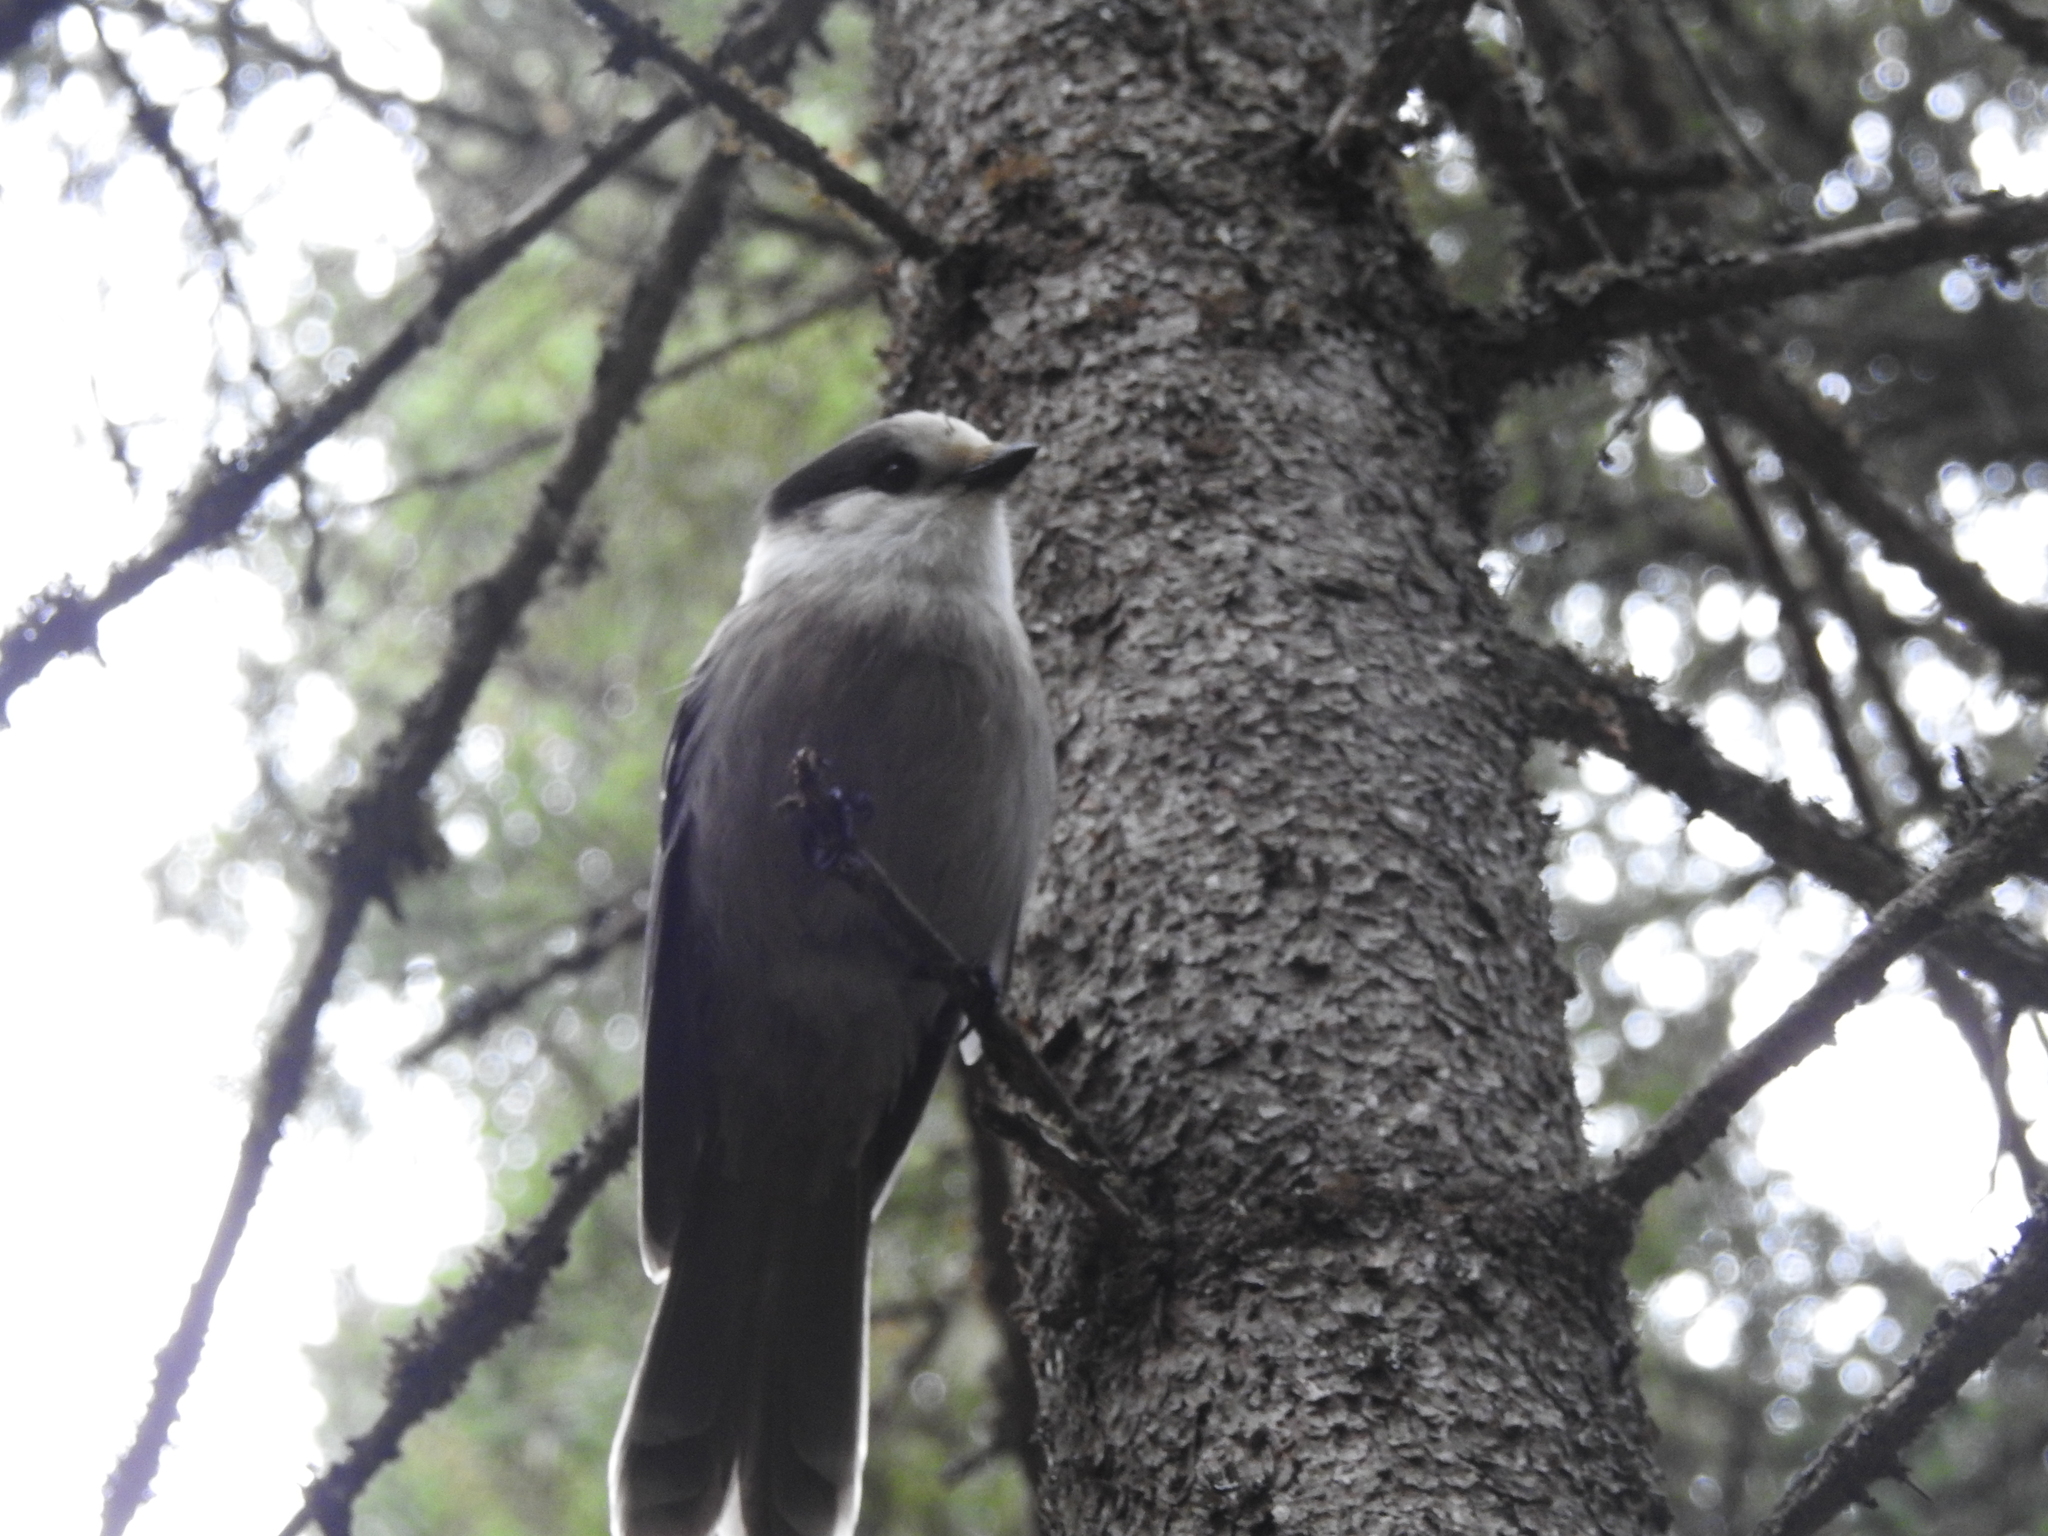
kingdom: Animalia
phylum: Chordata
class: Aves
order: Passeriformes
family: Corvidae
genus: Perisoreus
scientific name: Perisoreus canadensis
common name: Gray jay
